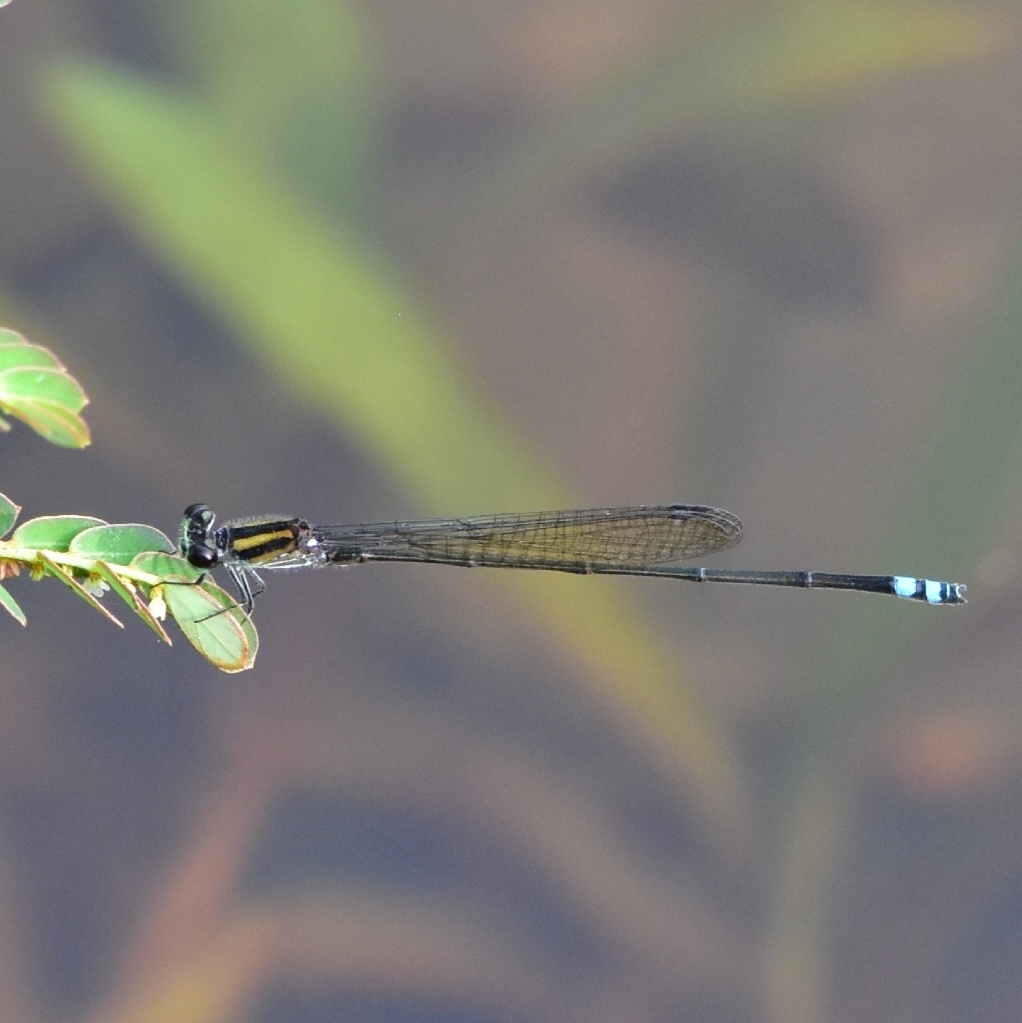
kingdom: Animalia
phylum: Arthropoda
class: Insecta
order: Odonata
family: Coenagrionidae
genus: Pseudagrion
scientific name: Pseudagrion indicum
